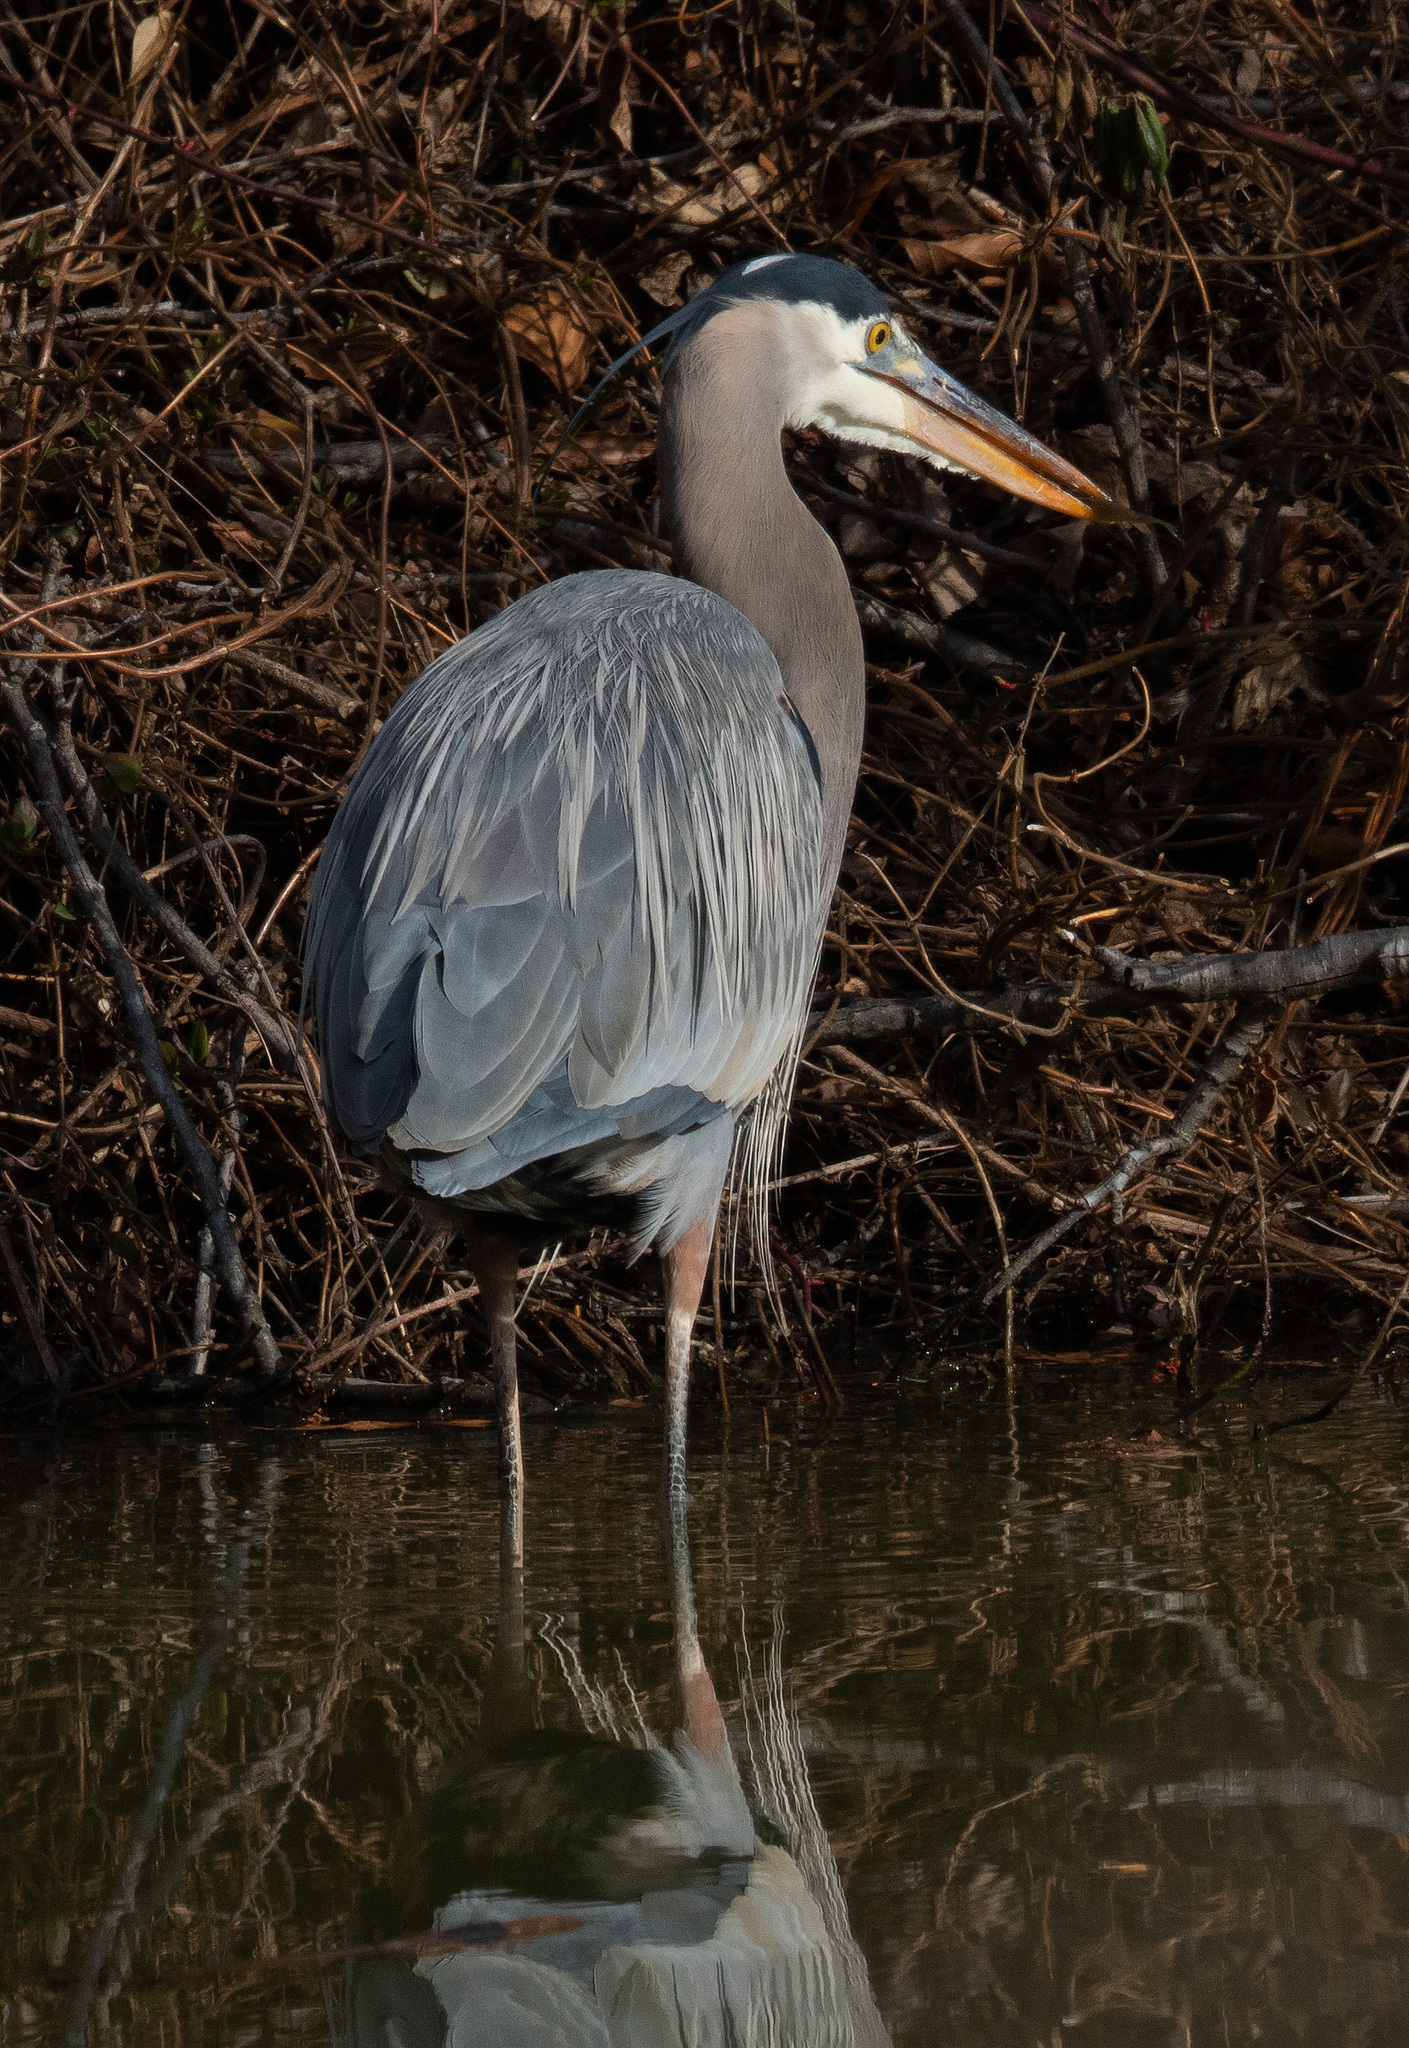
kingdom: Animalia
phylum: Chordata
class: Aves
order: Pelecaniformes
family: Ardeidae
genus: Ardea
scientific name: Ardea herodias
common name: Great blue heron
